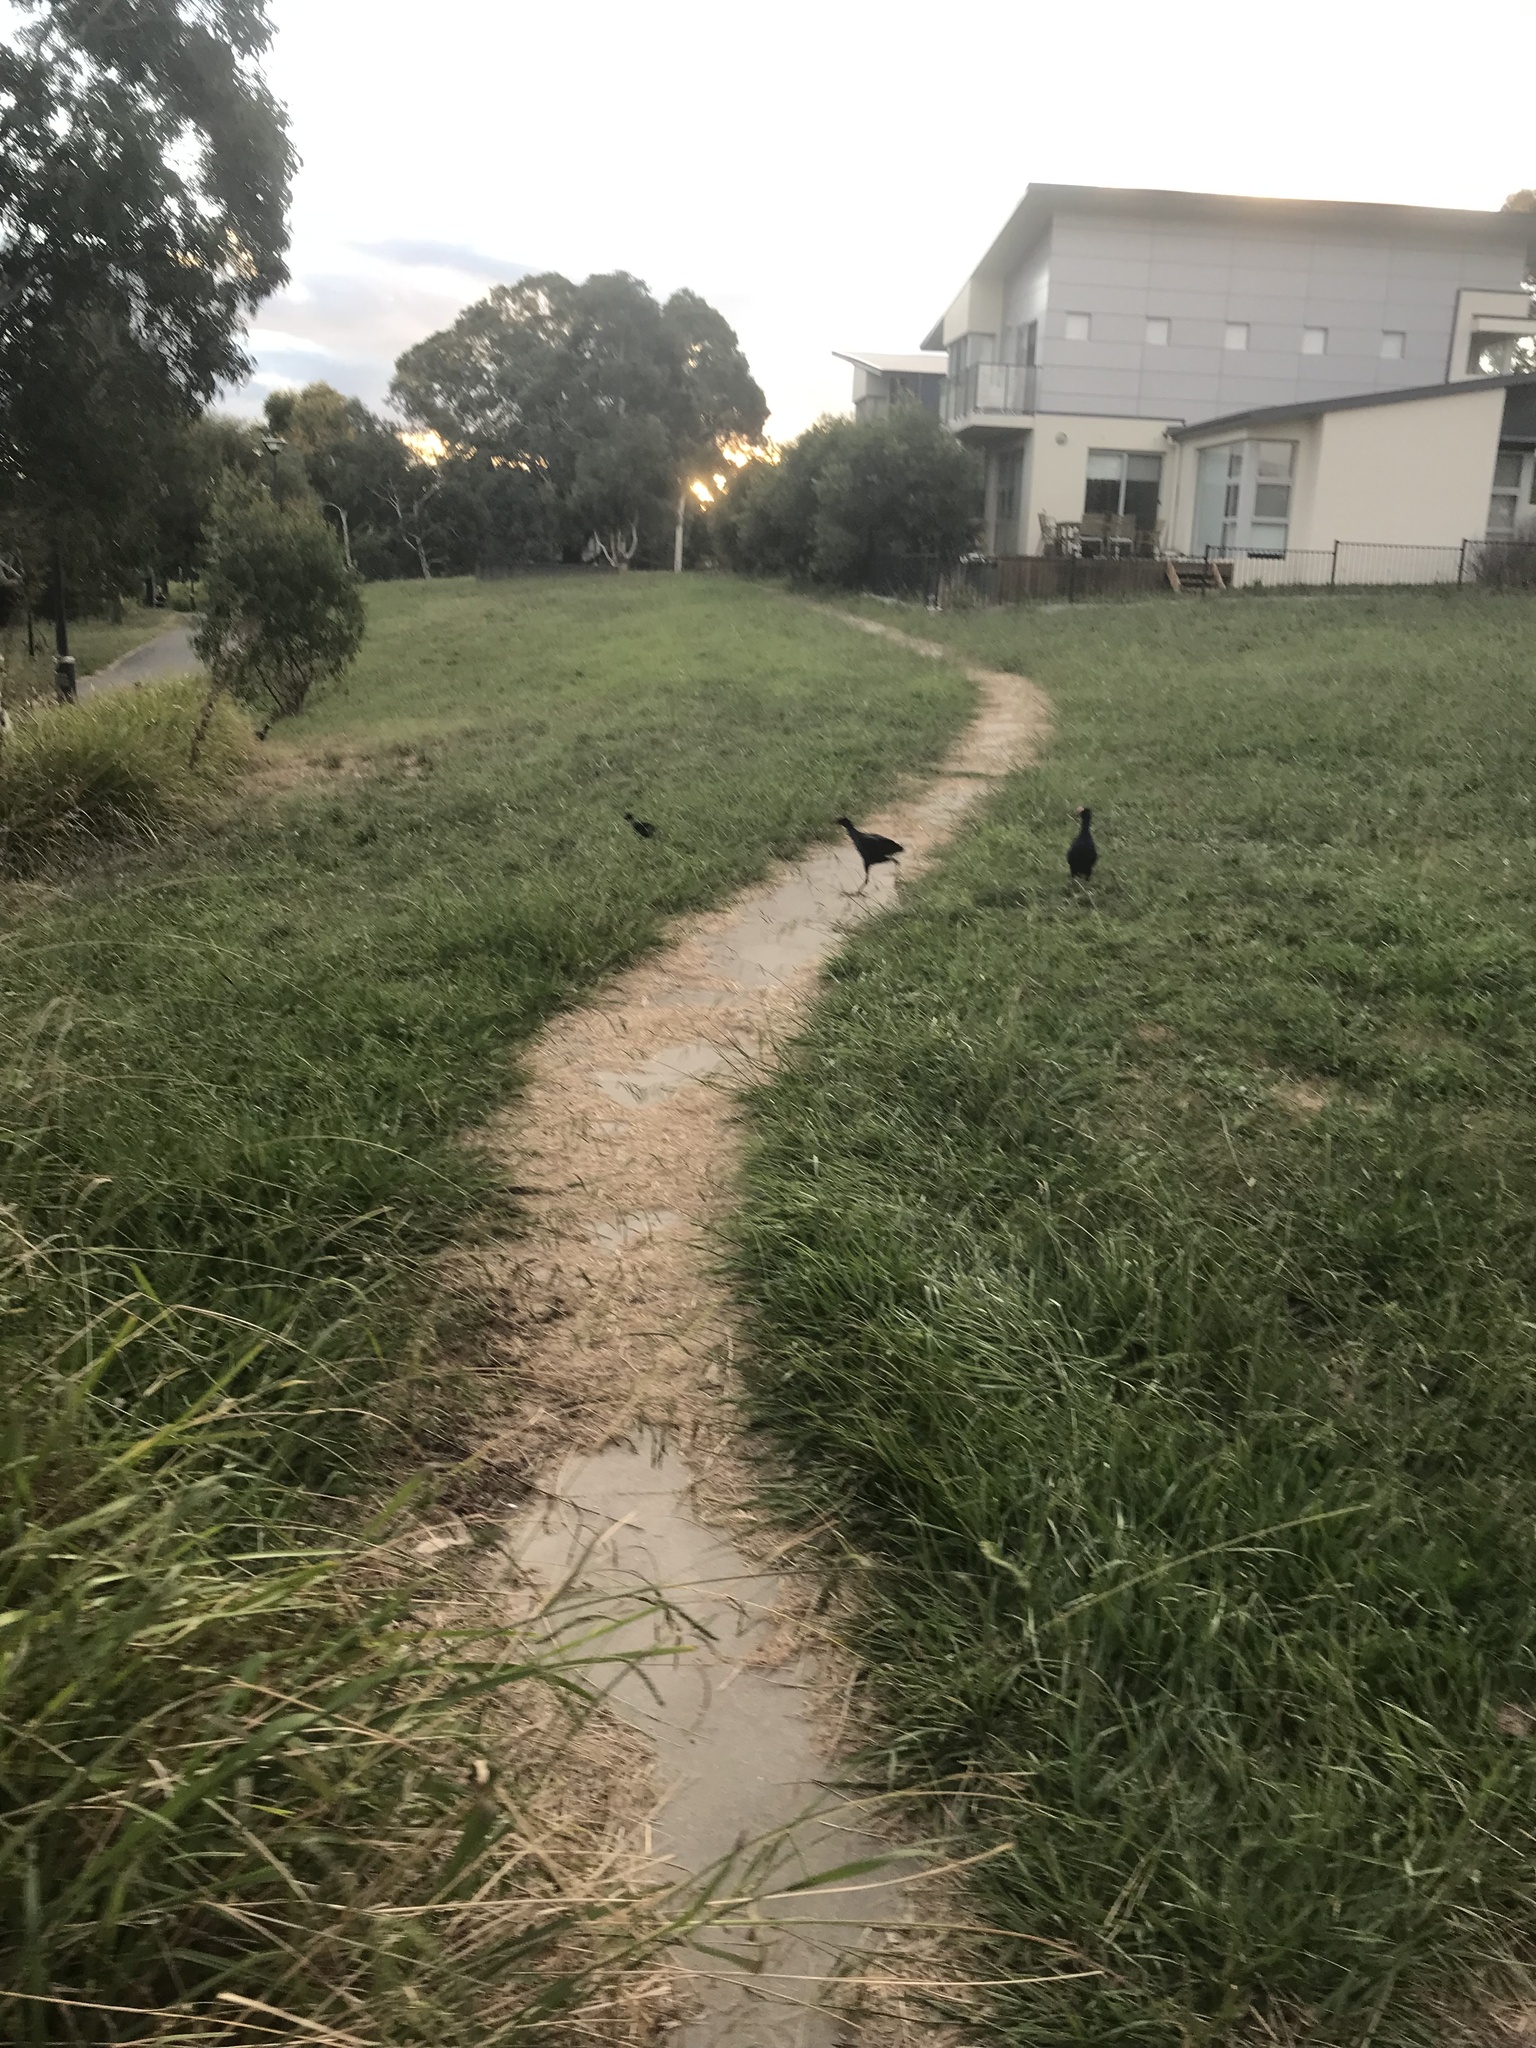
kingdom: Animalia
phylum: Chordata
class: Aves
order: Gruiformes
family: Rallidae
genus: Porphyrio
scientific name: Porphyrio melanotus
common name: Australasian swamphen
